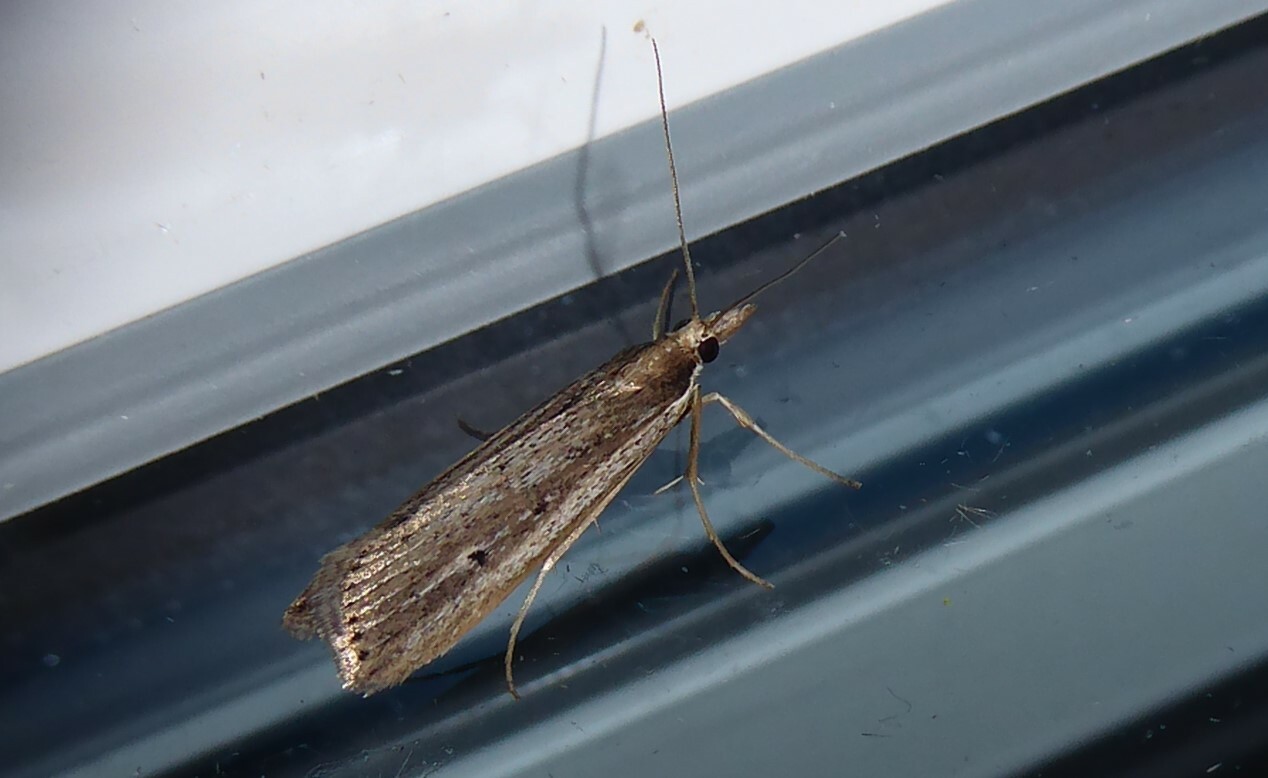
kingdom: Animalia
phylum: Arthropoda
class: Insecta
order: Lepidoptera
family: Crambidae
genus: Eudonia
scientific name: Eudonia sabulosella
